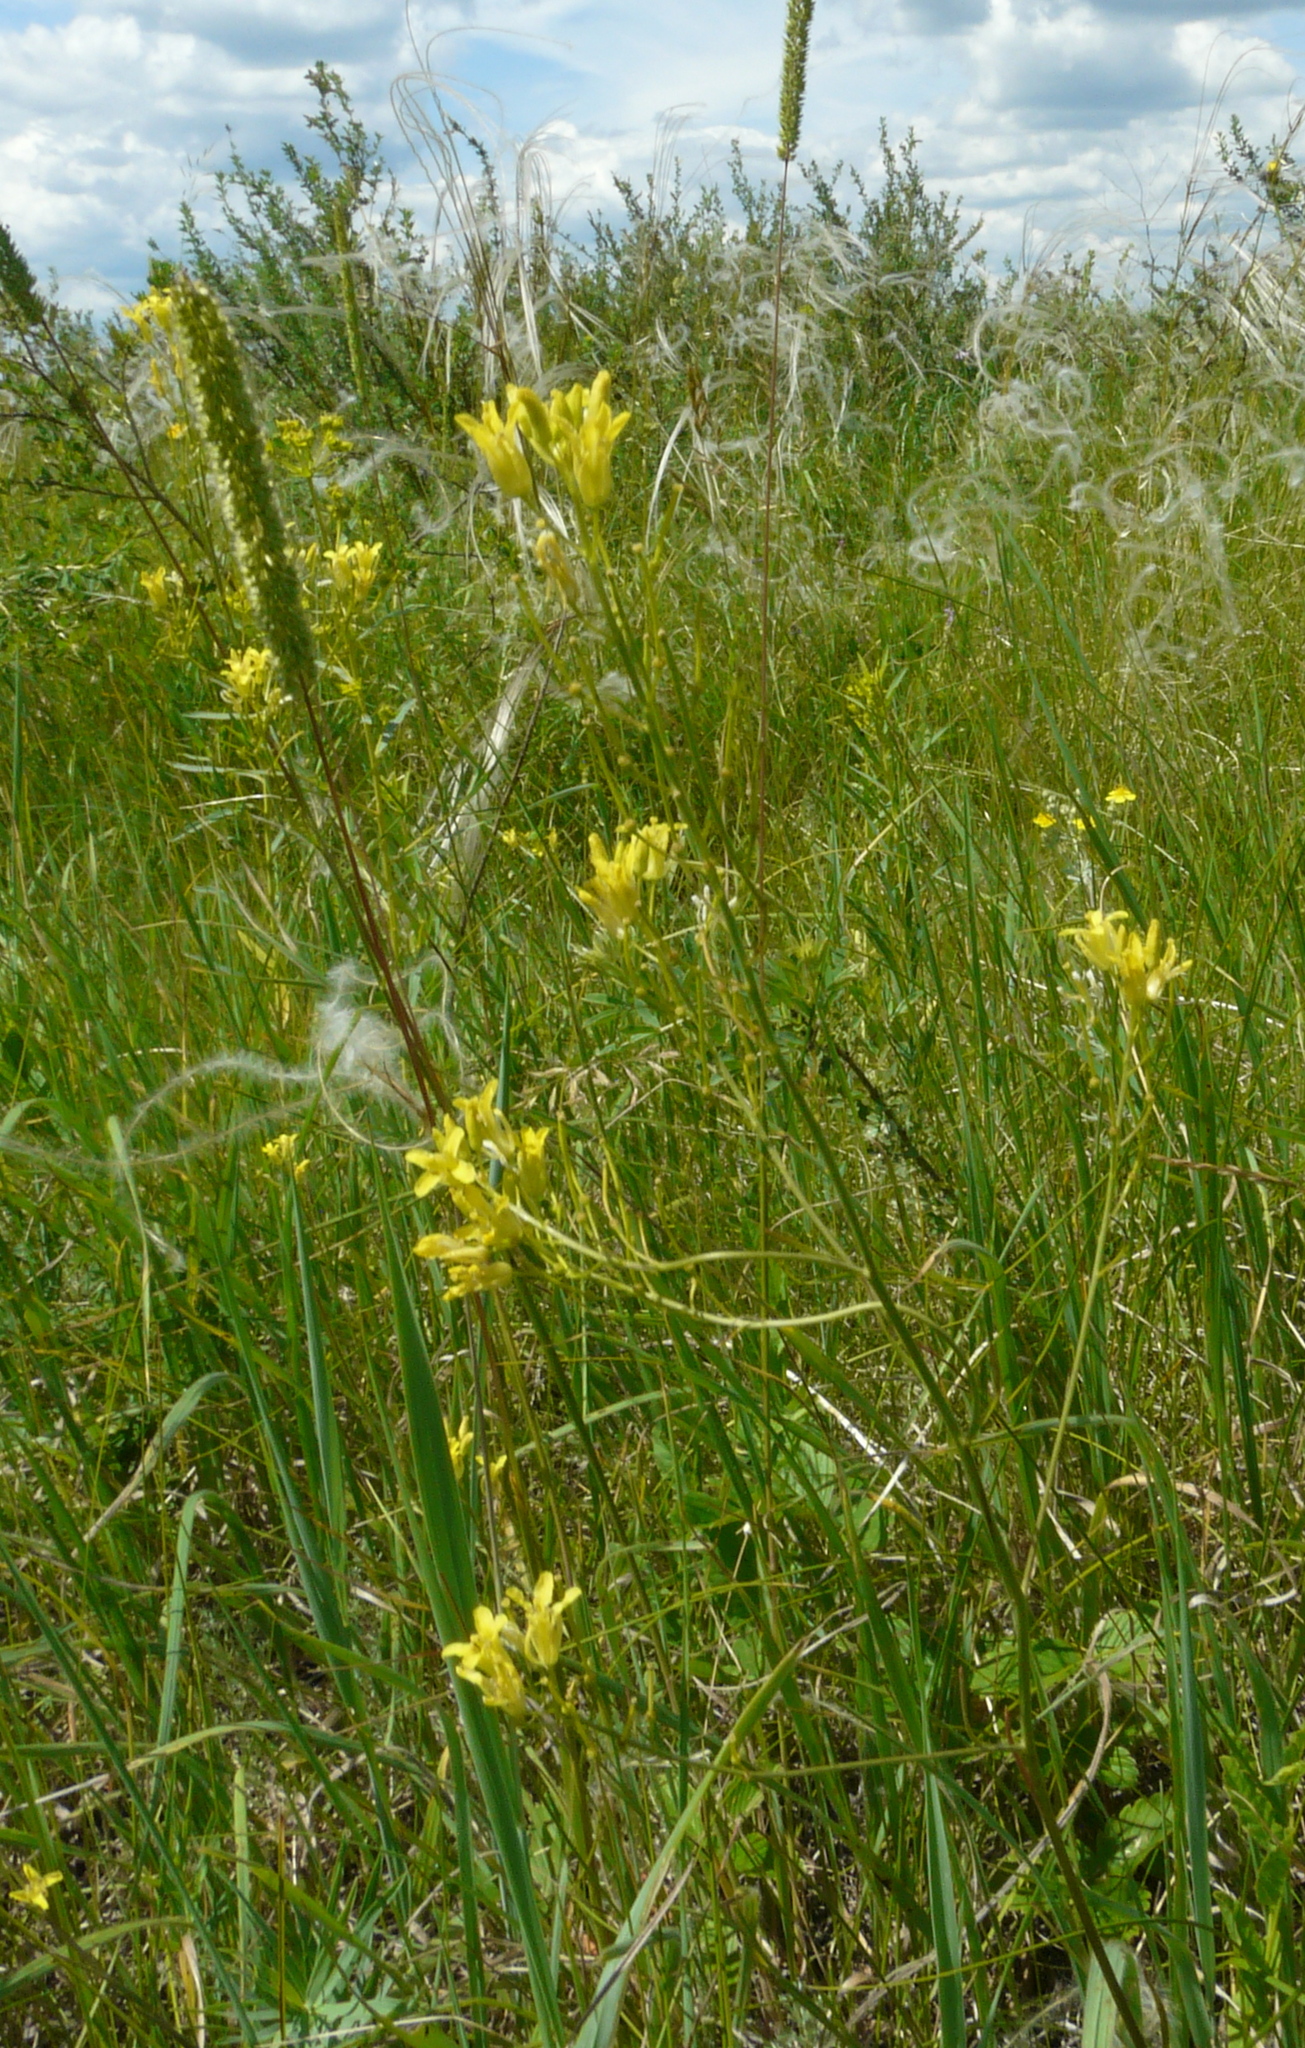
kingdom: Plantae
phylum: Tracheophyta
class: Magnoliopsida
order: Brassicales
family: Brassicaceae
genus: Sisymbrium
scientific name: Sisymbrium polymorphum
